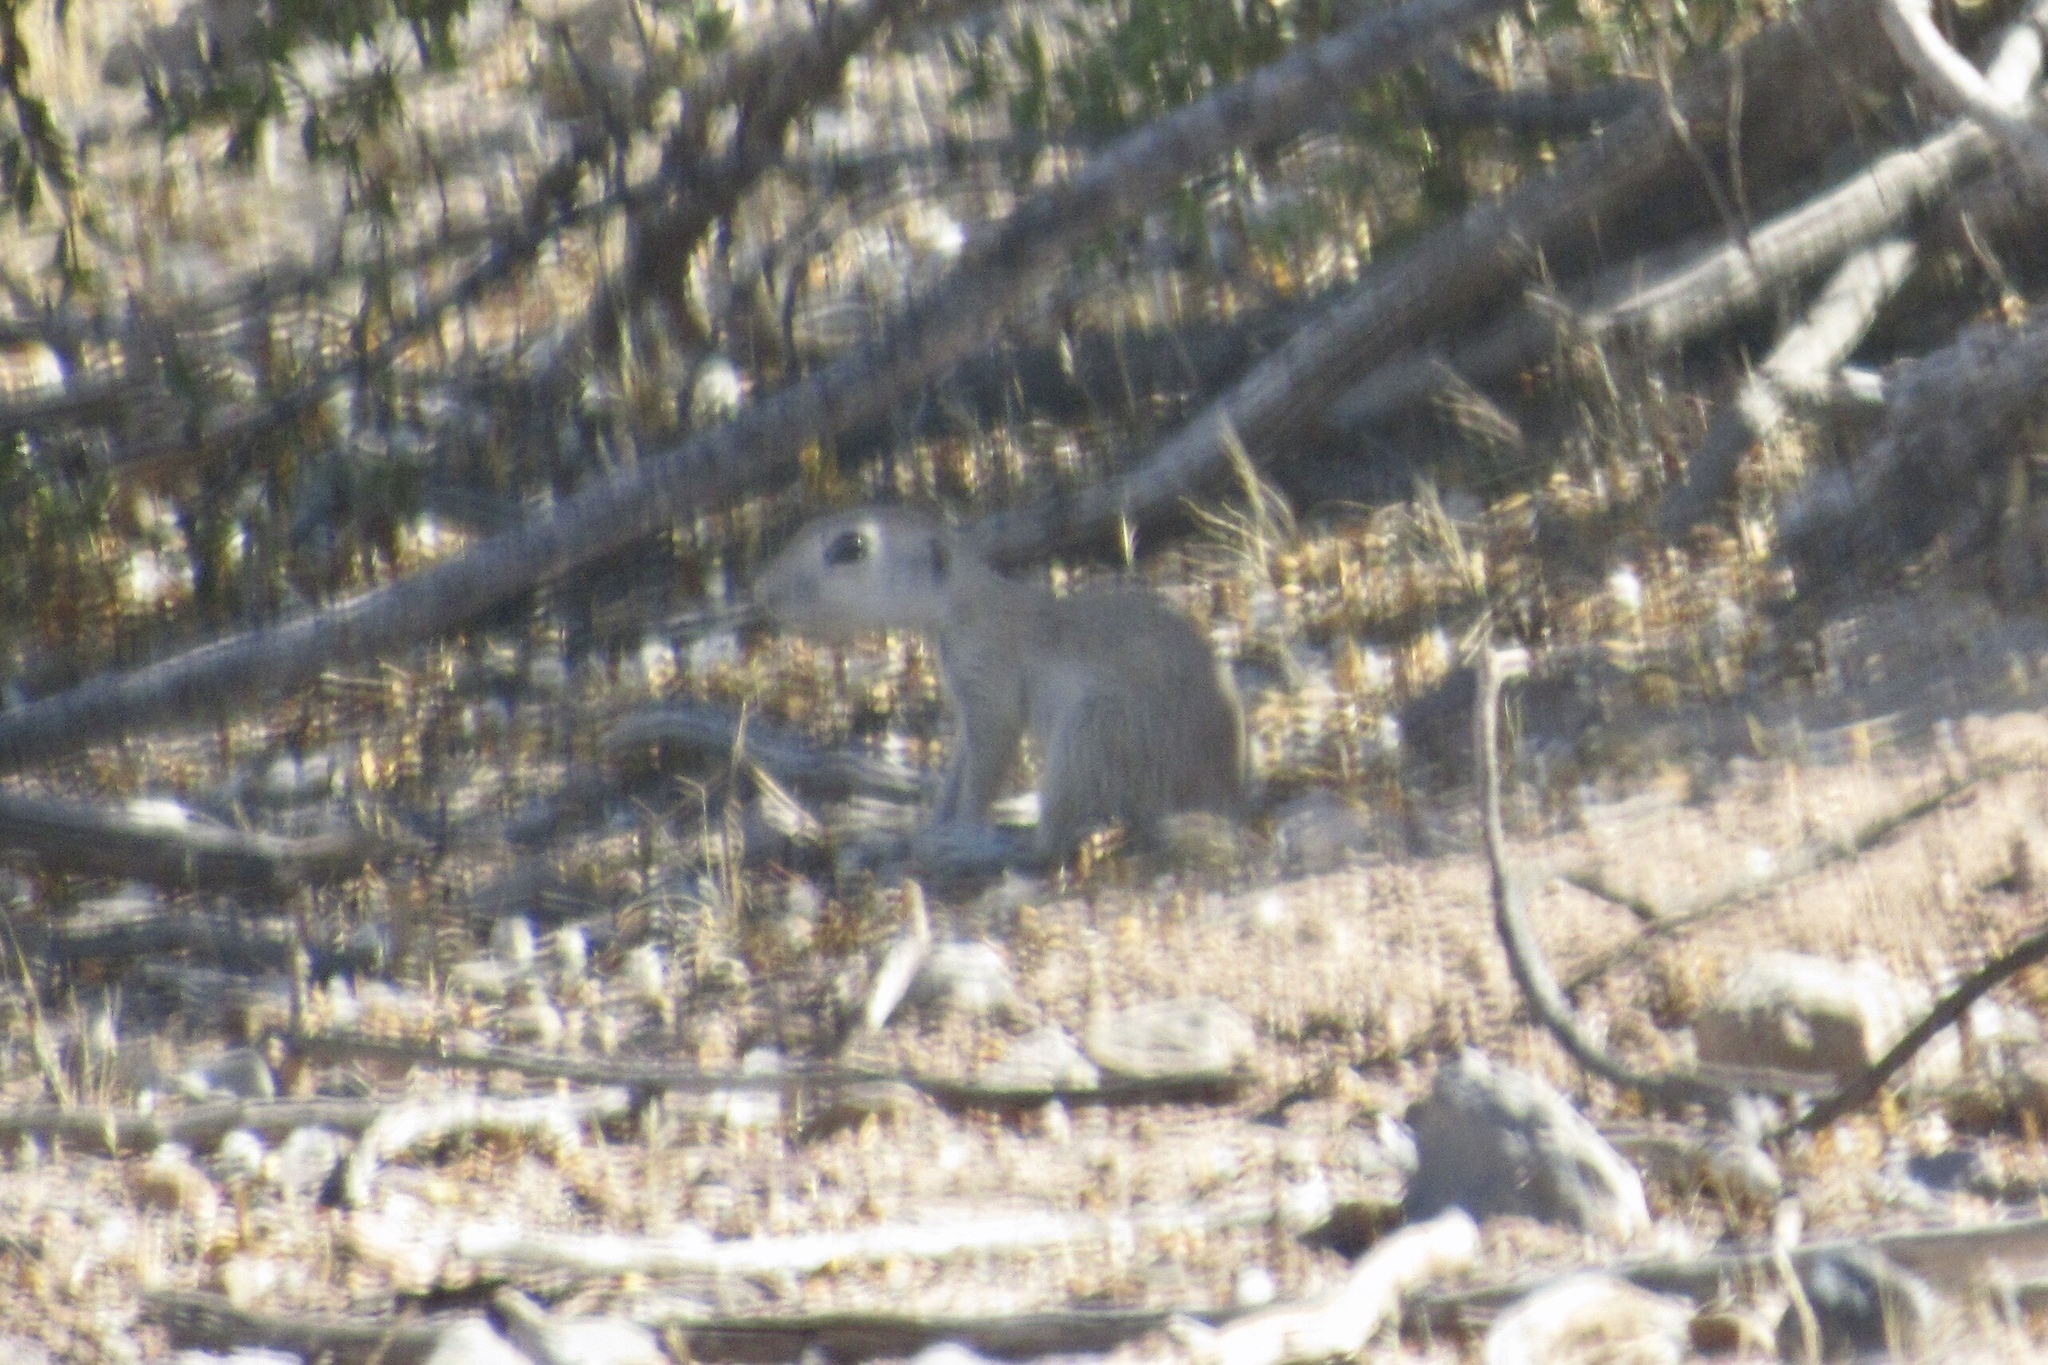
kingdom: Animalia
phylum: Chordata
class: Mammalia
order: Rodentia
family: Sciuridae
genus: Xerospermophilus
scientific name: Xerospermophilus tereticaudus
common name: Round-tailed ground squirrel
